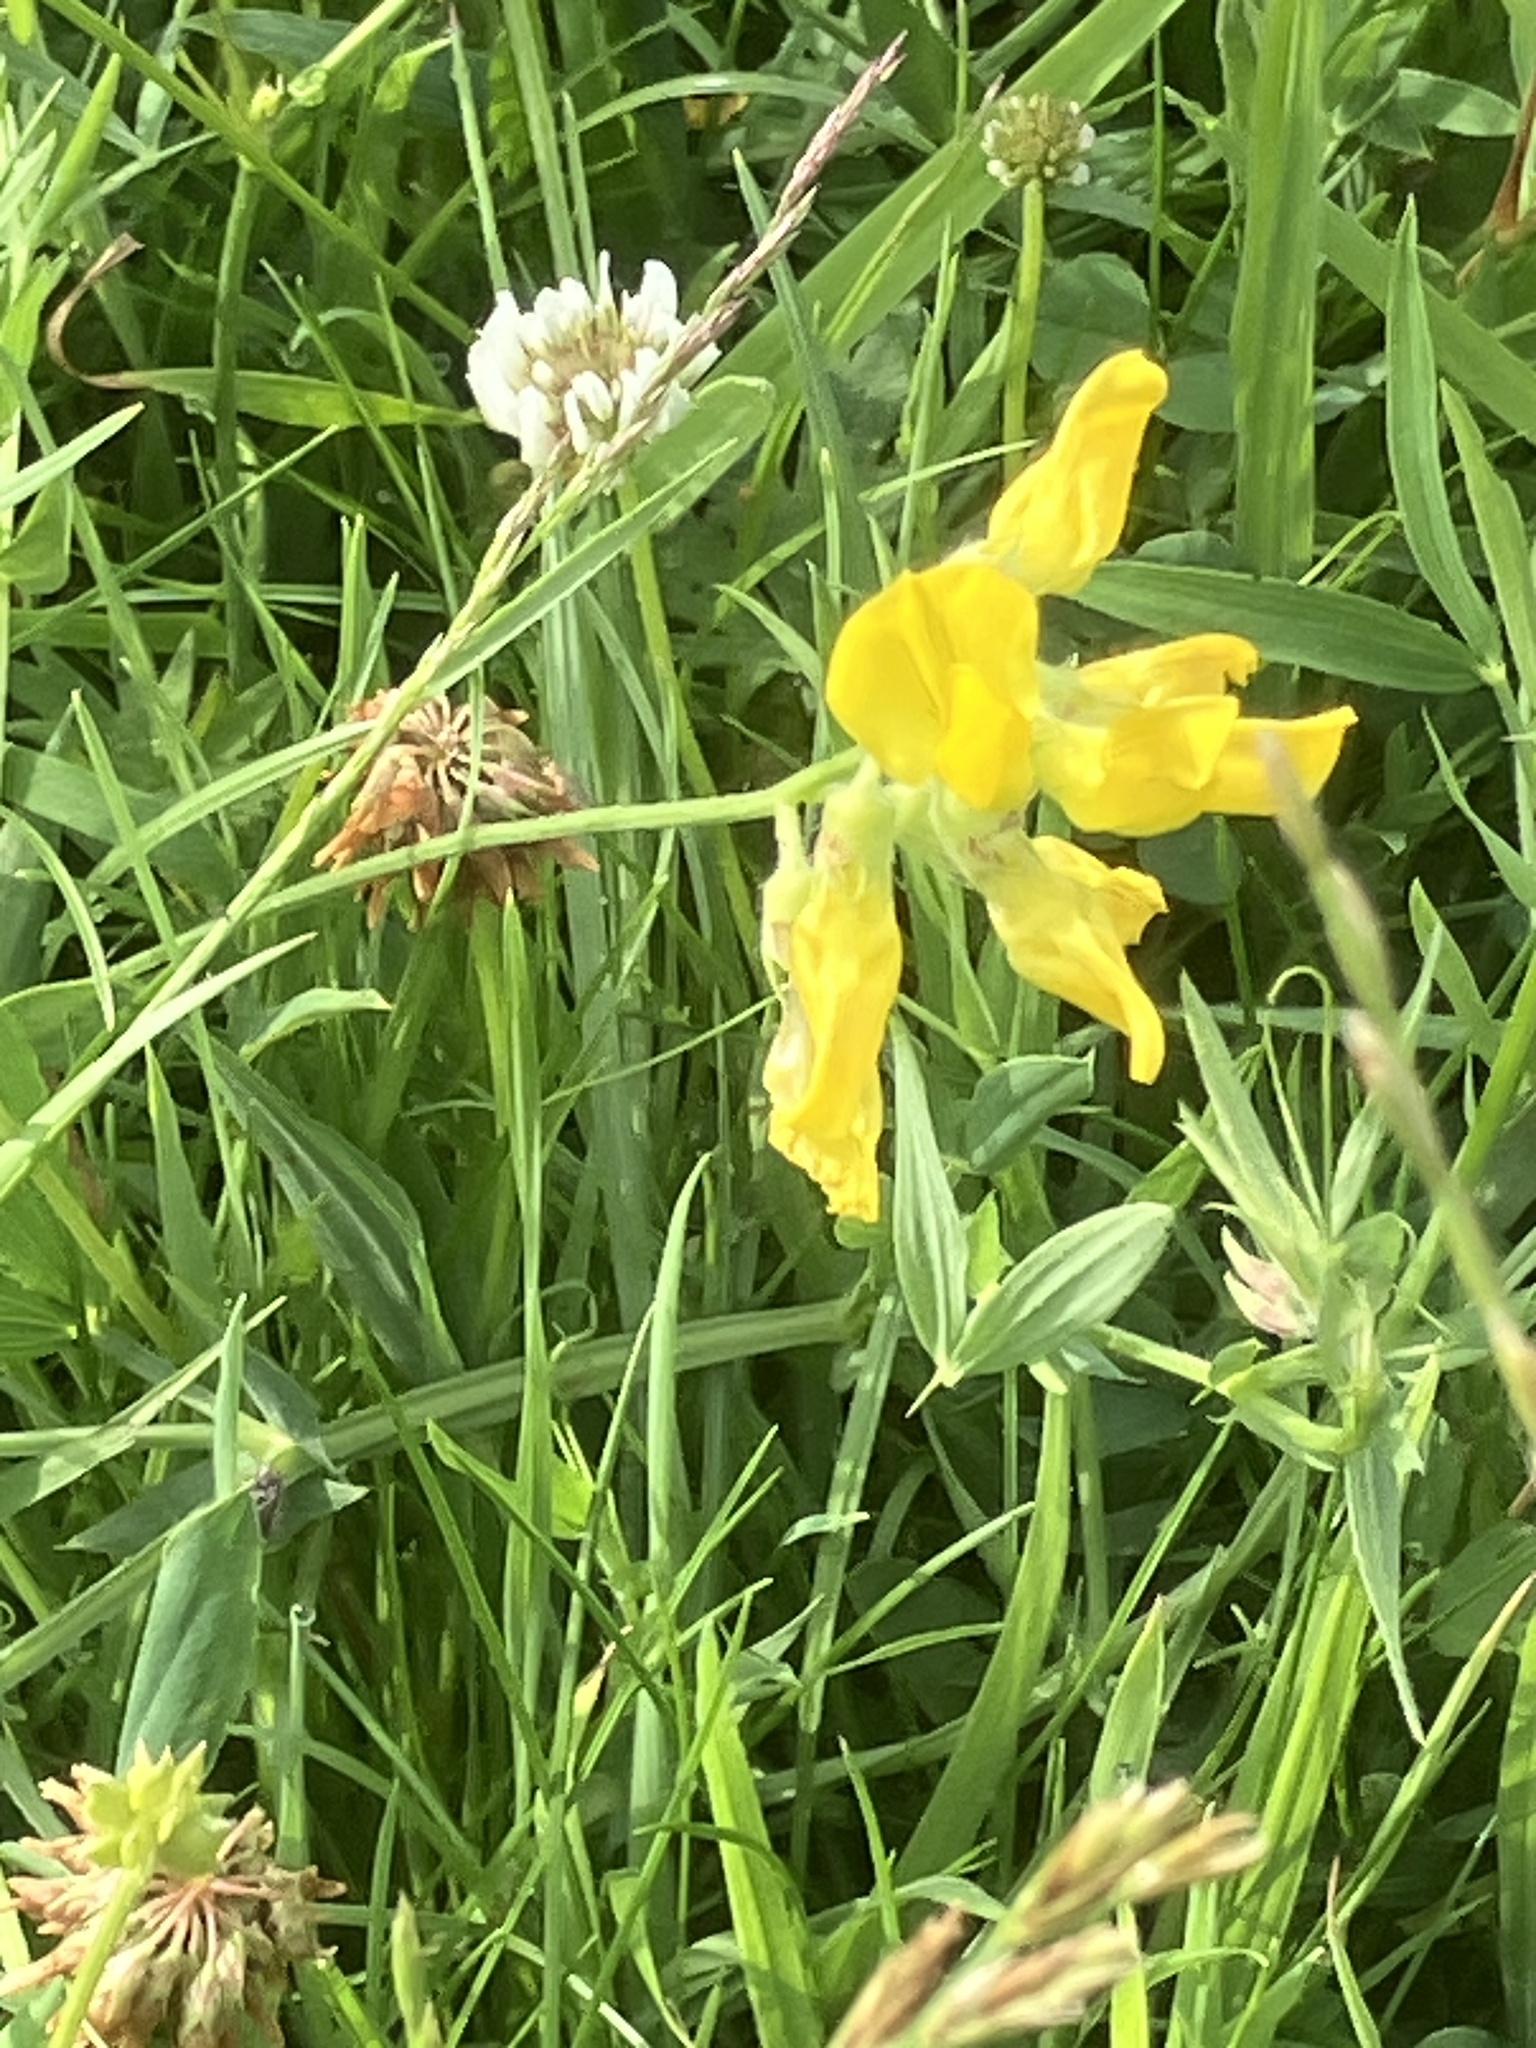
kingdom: Plantae
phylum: Tracheophyta
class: Magnoliopsida
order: Fabales
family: Fabaceae
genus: Lathyrus
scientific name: Lathyrus pratensis
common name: Meadow vetchling
